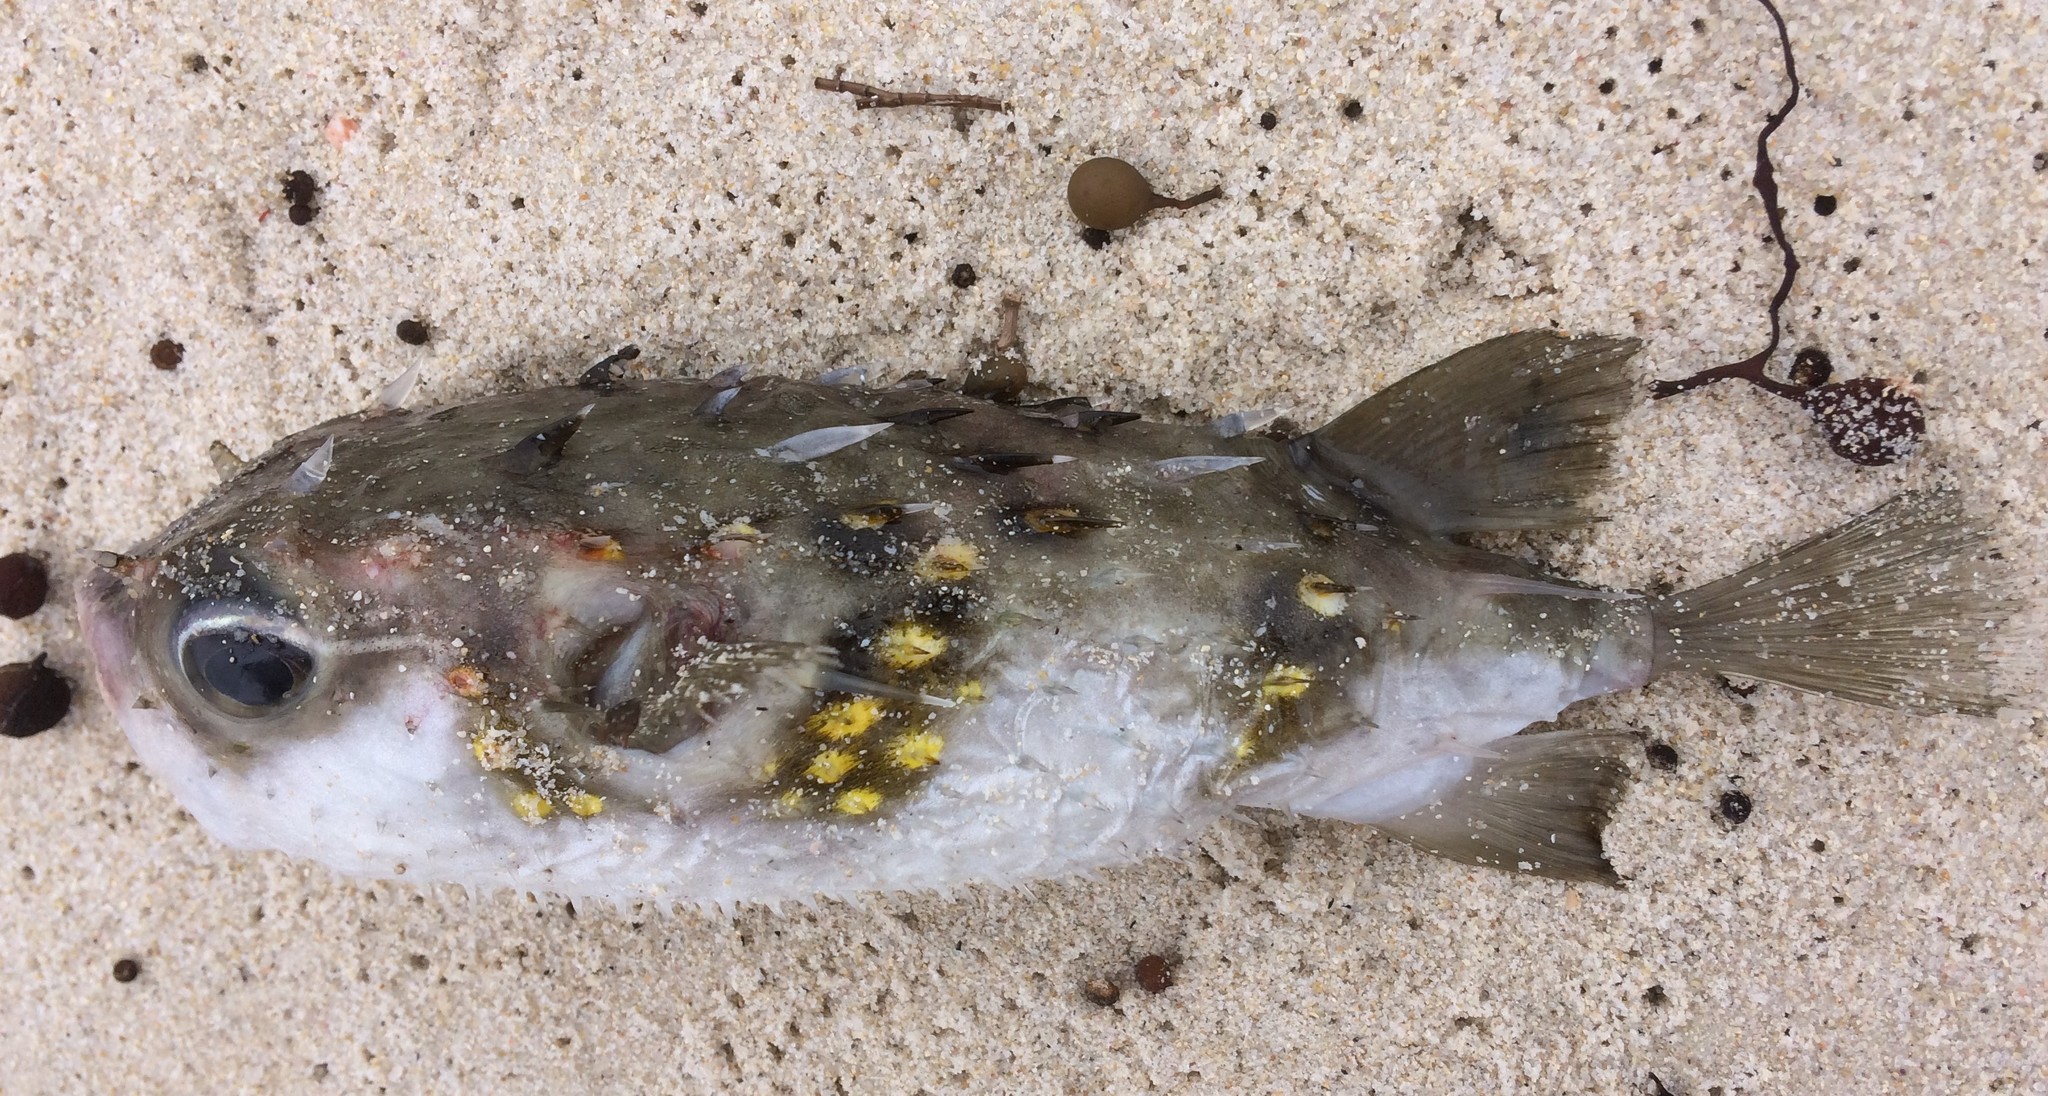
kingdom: Animalia
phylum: Chordata
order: Tetraodontiformes
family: Diodontidae
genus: Allomycterus
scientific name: Allomycterus pilatus
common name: No common name
